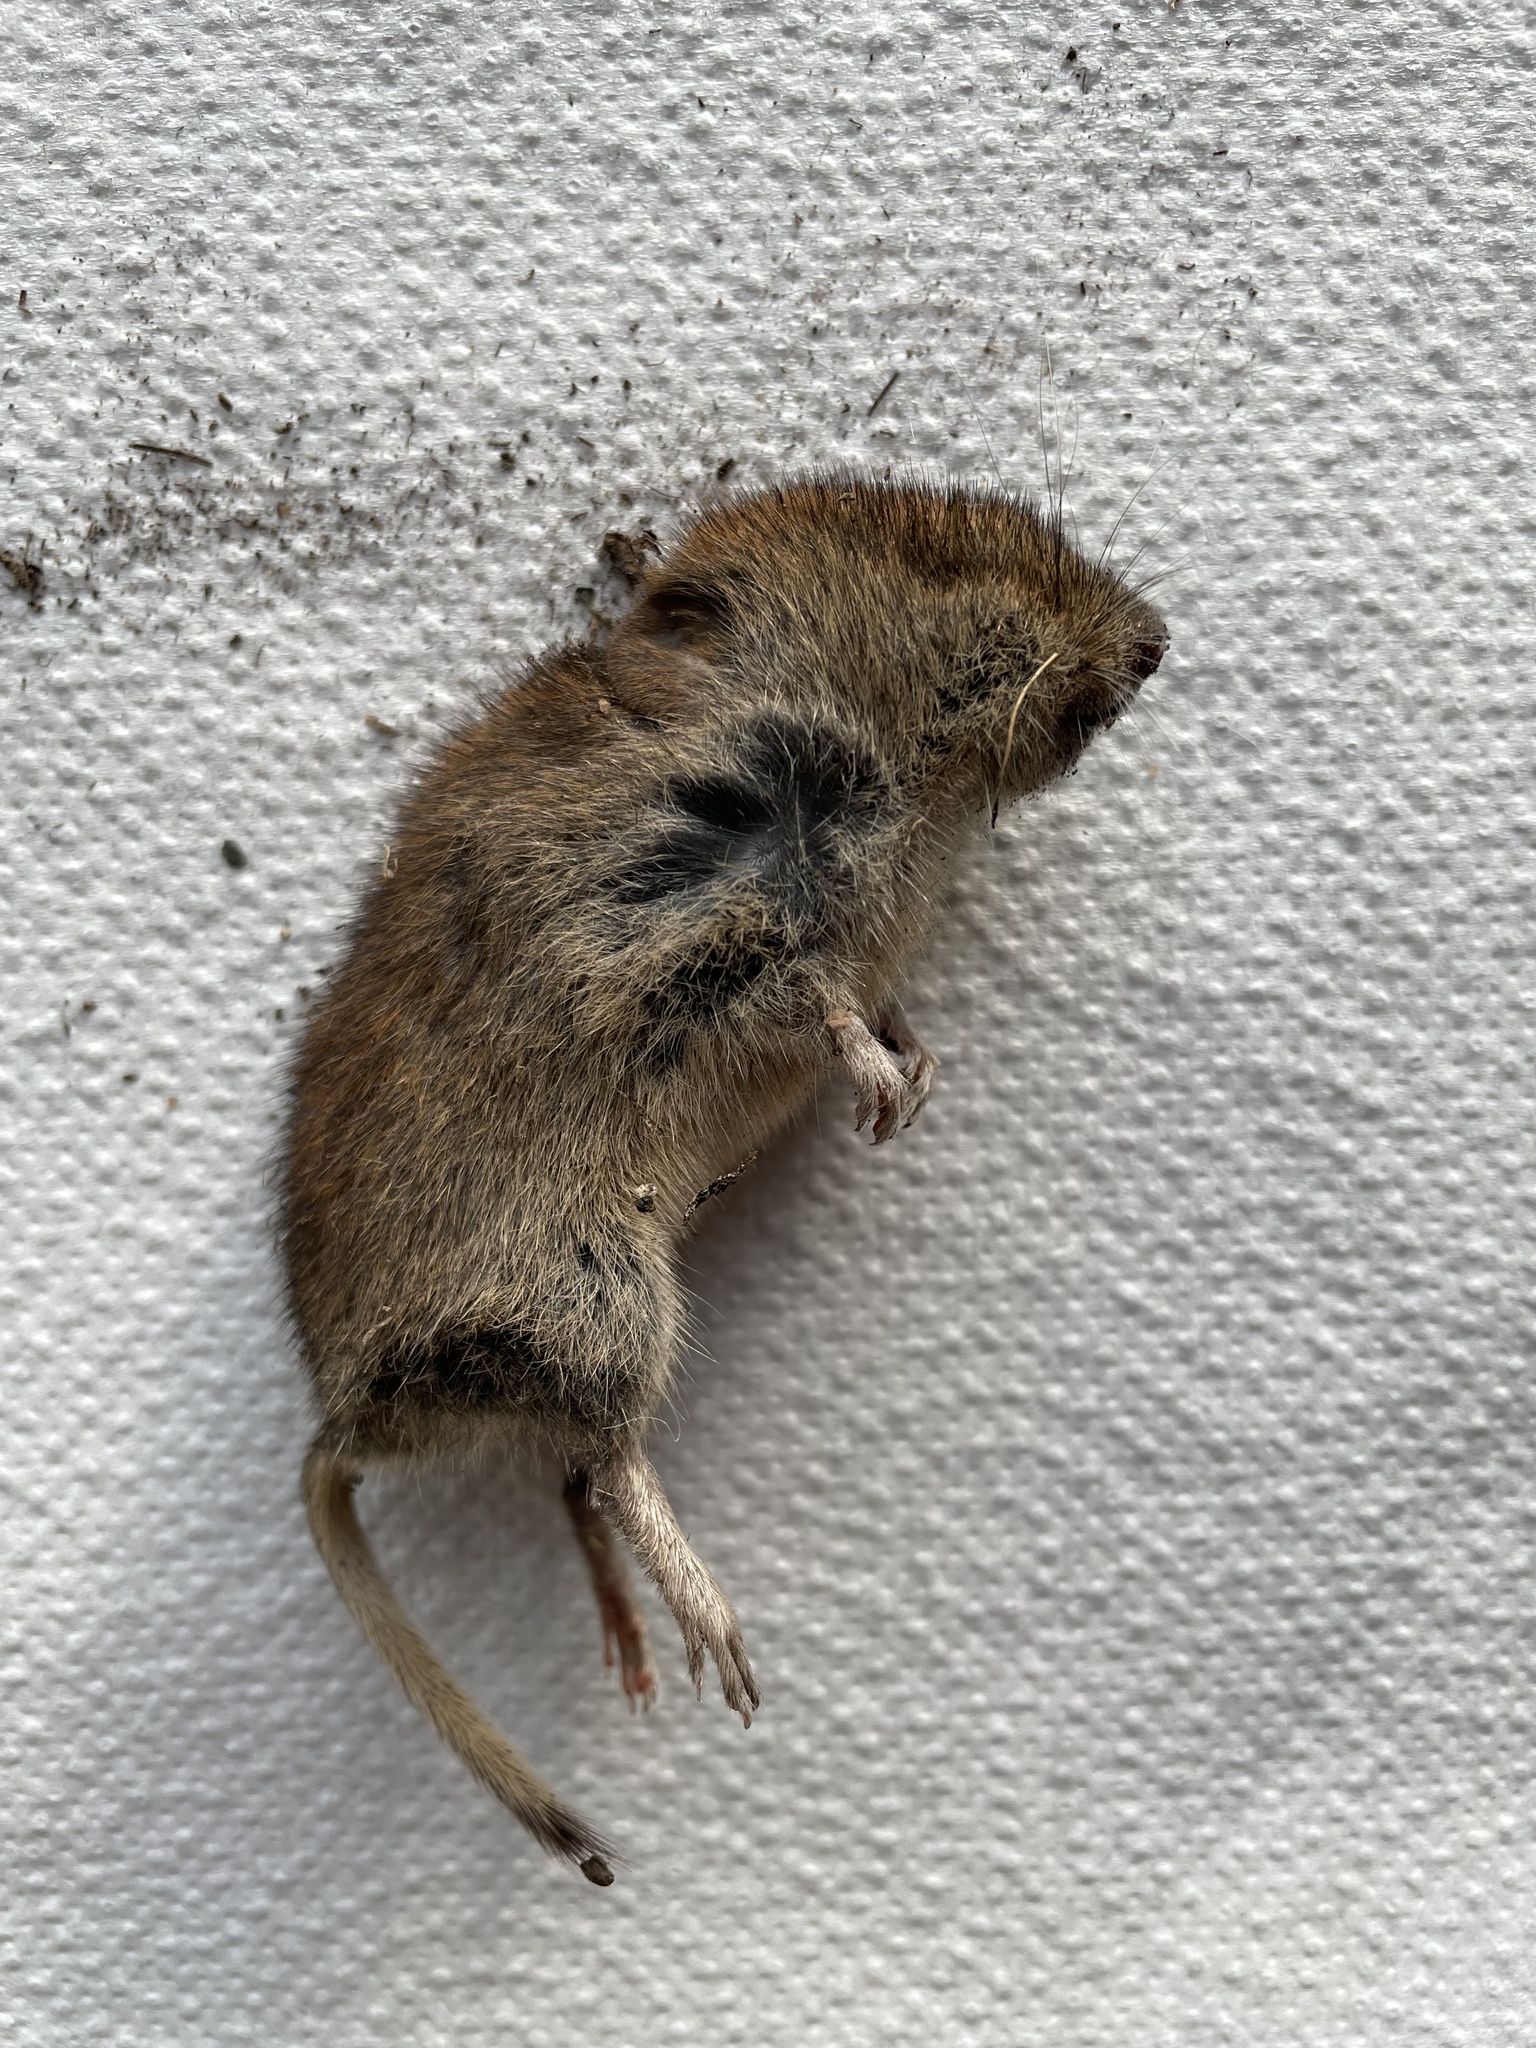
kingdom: Animalia
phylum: Chordata
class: Mammalia
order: Rodentia
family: Cricetidae
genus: Myodes
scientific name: Myodes glareolus
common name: Bank vole
